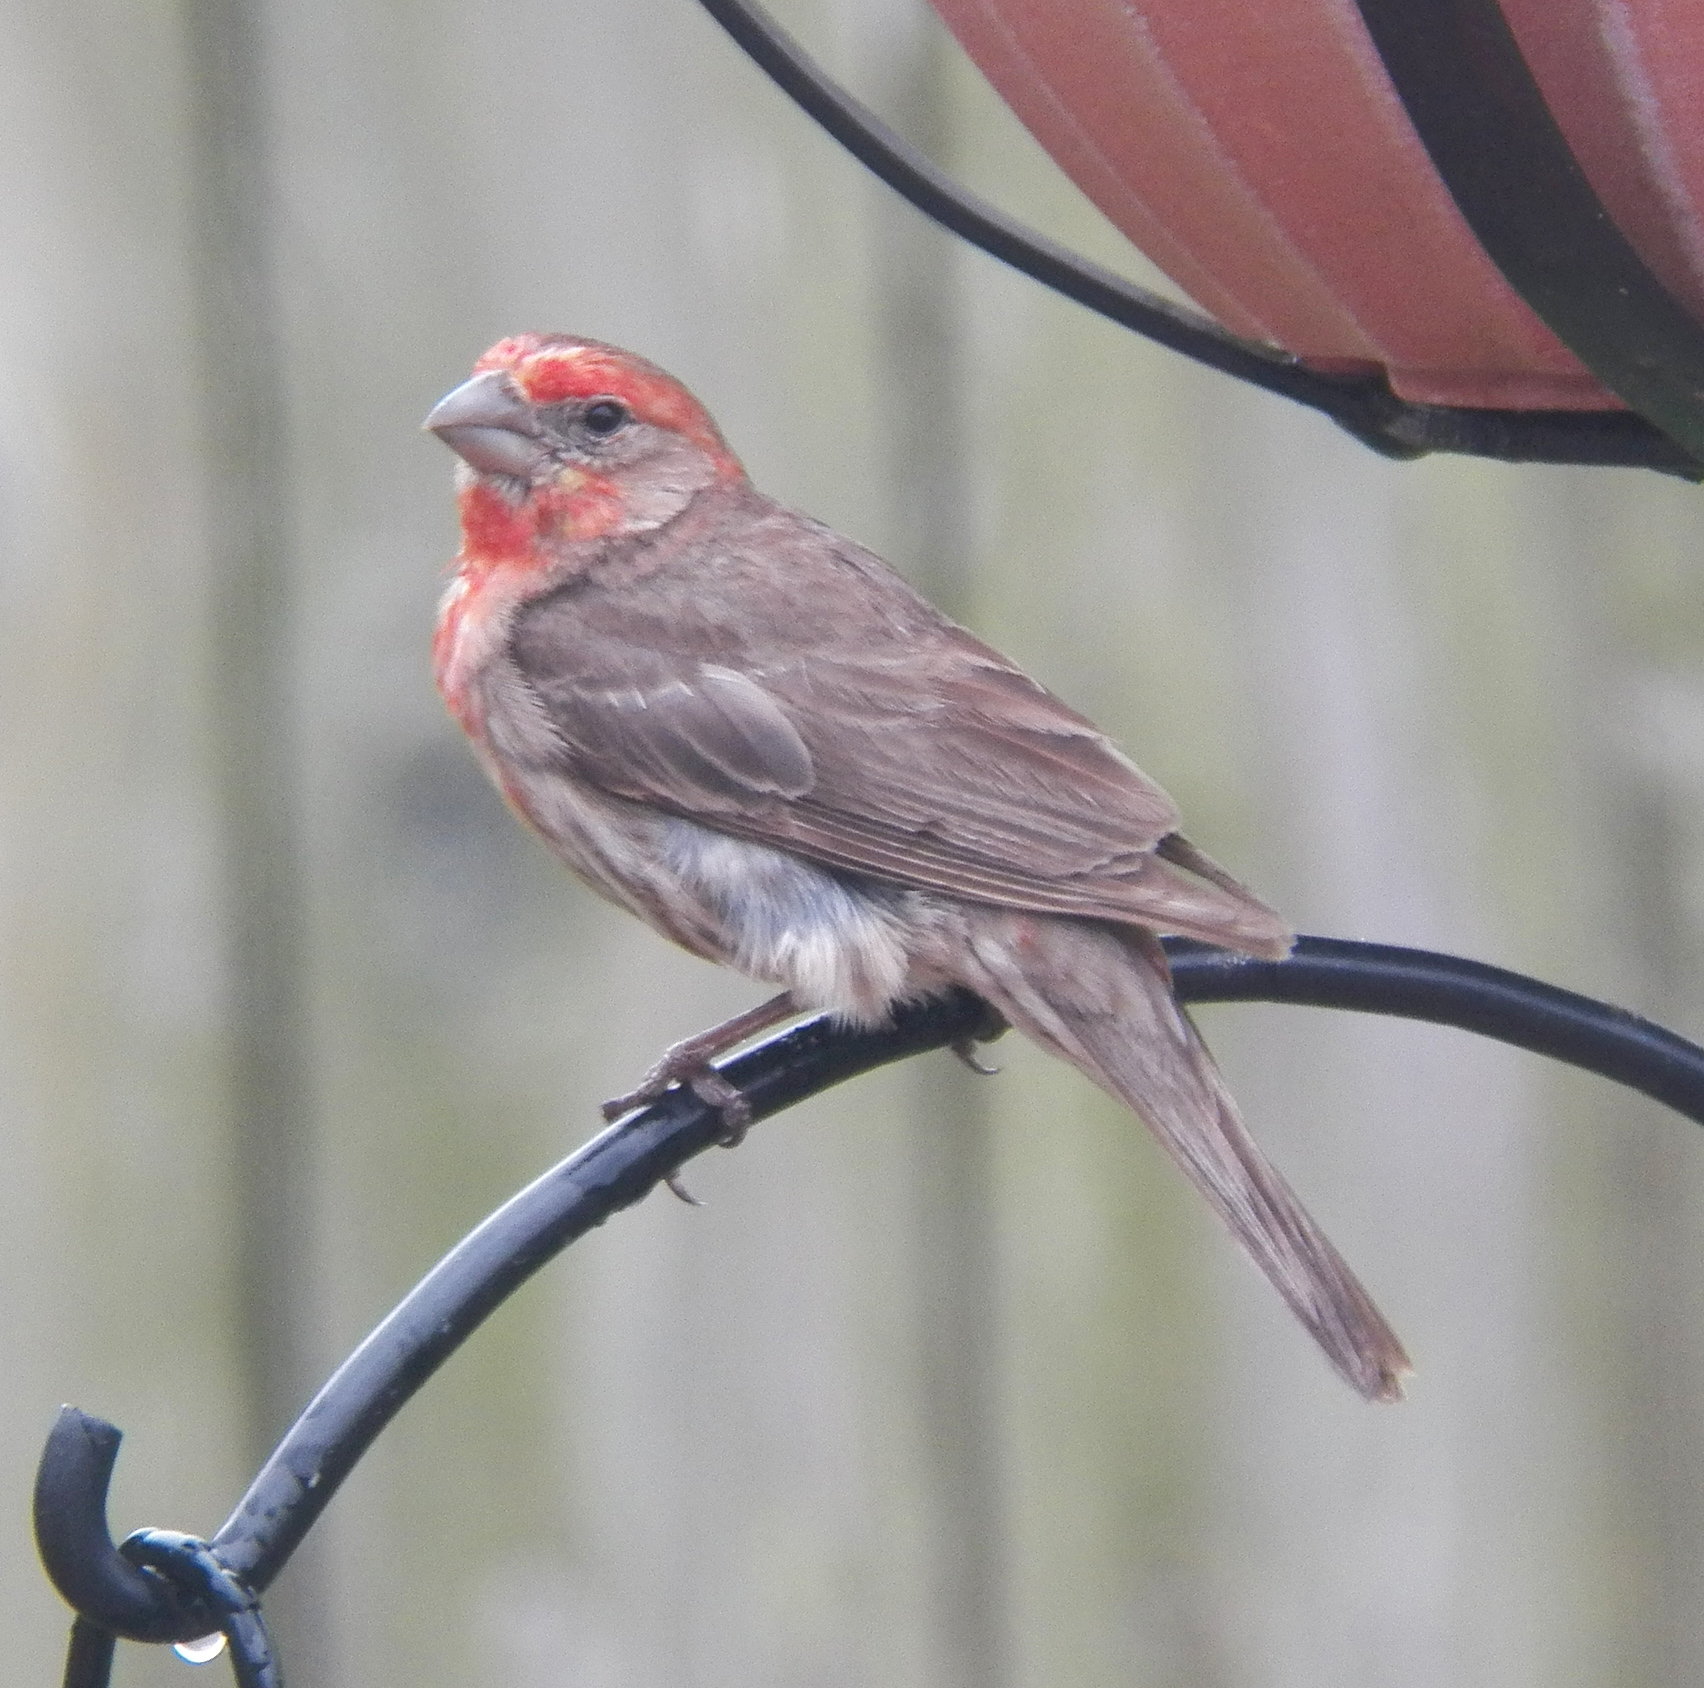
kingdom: Animalia
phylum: Chordata
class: Aves
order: Passeriformes
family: Fringillidae
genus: Haemorhous
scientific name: Haemorhous mexicanus
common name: House finch
